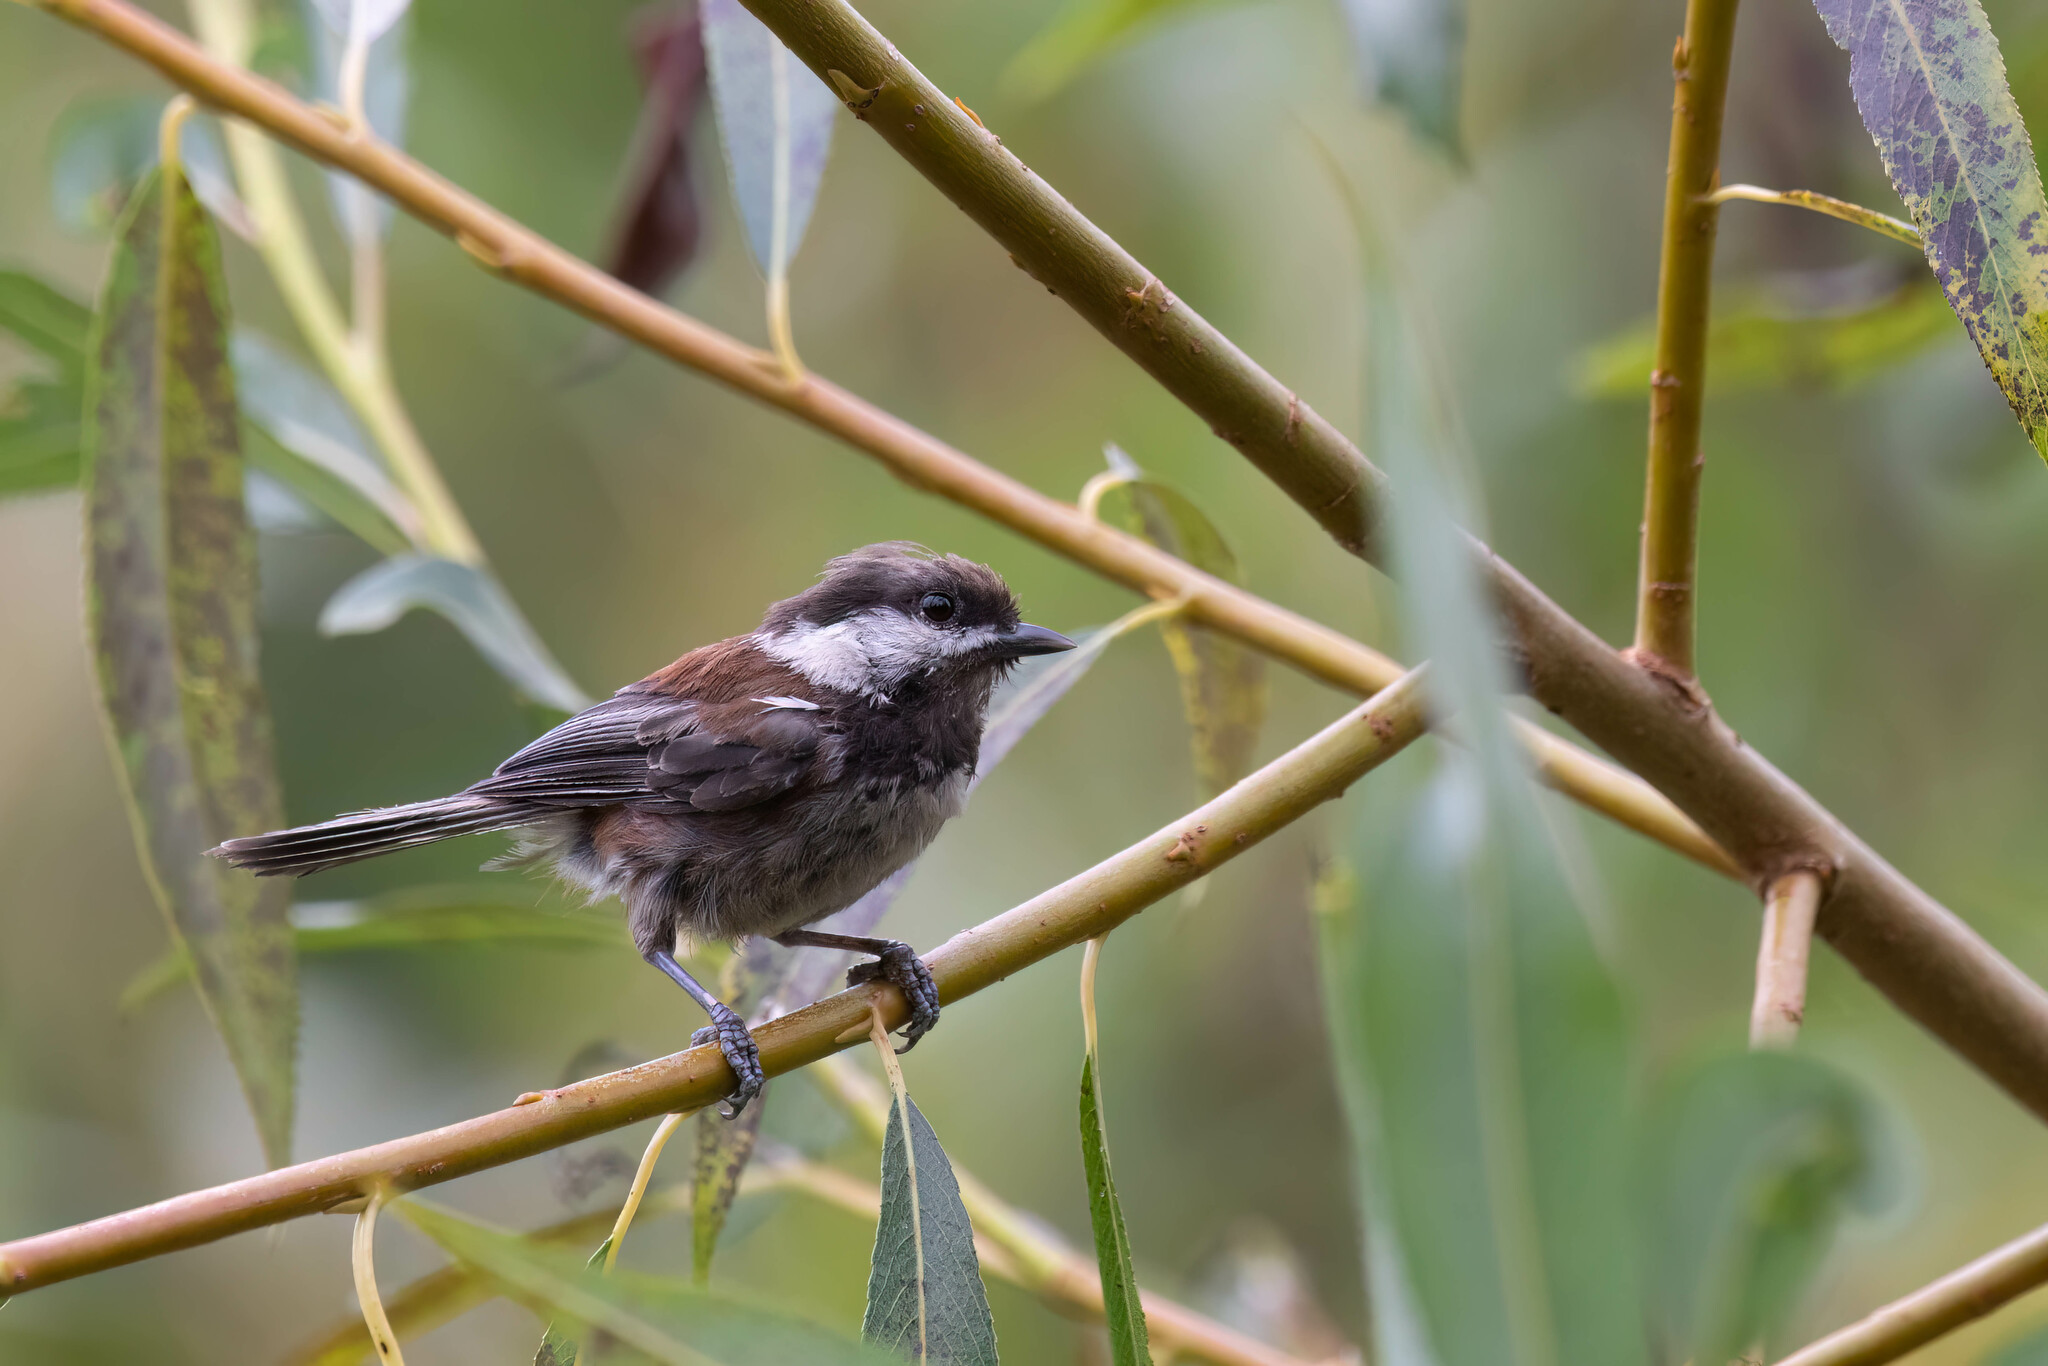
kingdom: Animalia
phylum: Chordata
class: Aves
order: Passeriformes
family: Paridae
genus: Poecile
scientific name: Poecile rufescens
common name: Chestnut-backed chickadee
